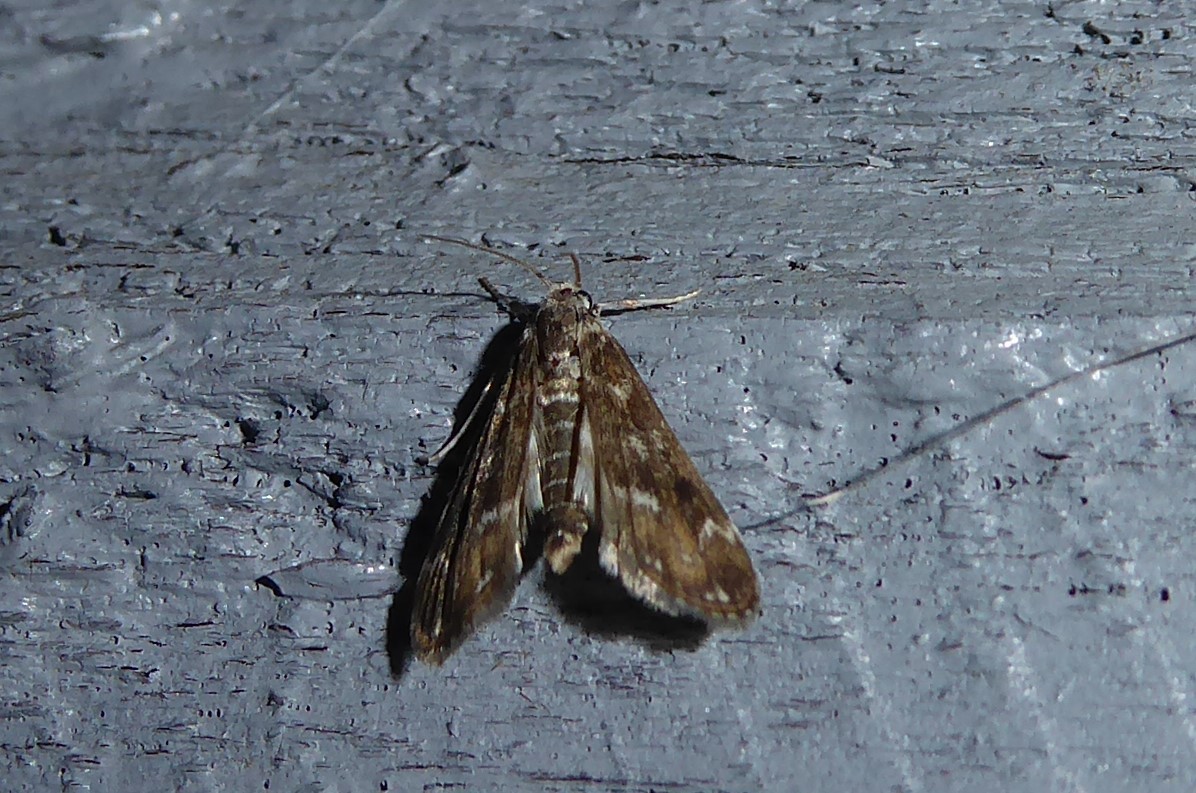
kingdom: Animalia
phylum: Arthropoda
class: Insecta
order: Lepidoptera
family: Crambidae
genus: Hygraula
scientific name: Hygraula nitens
